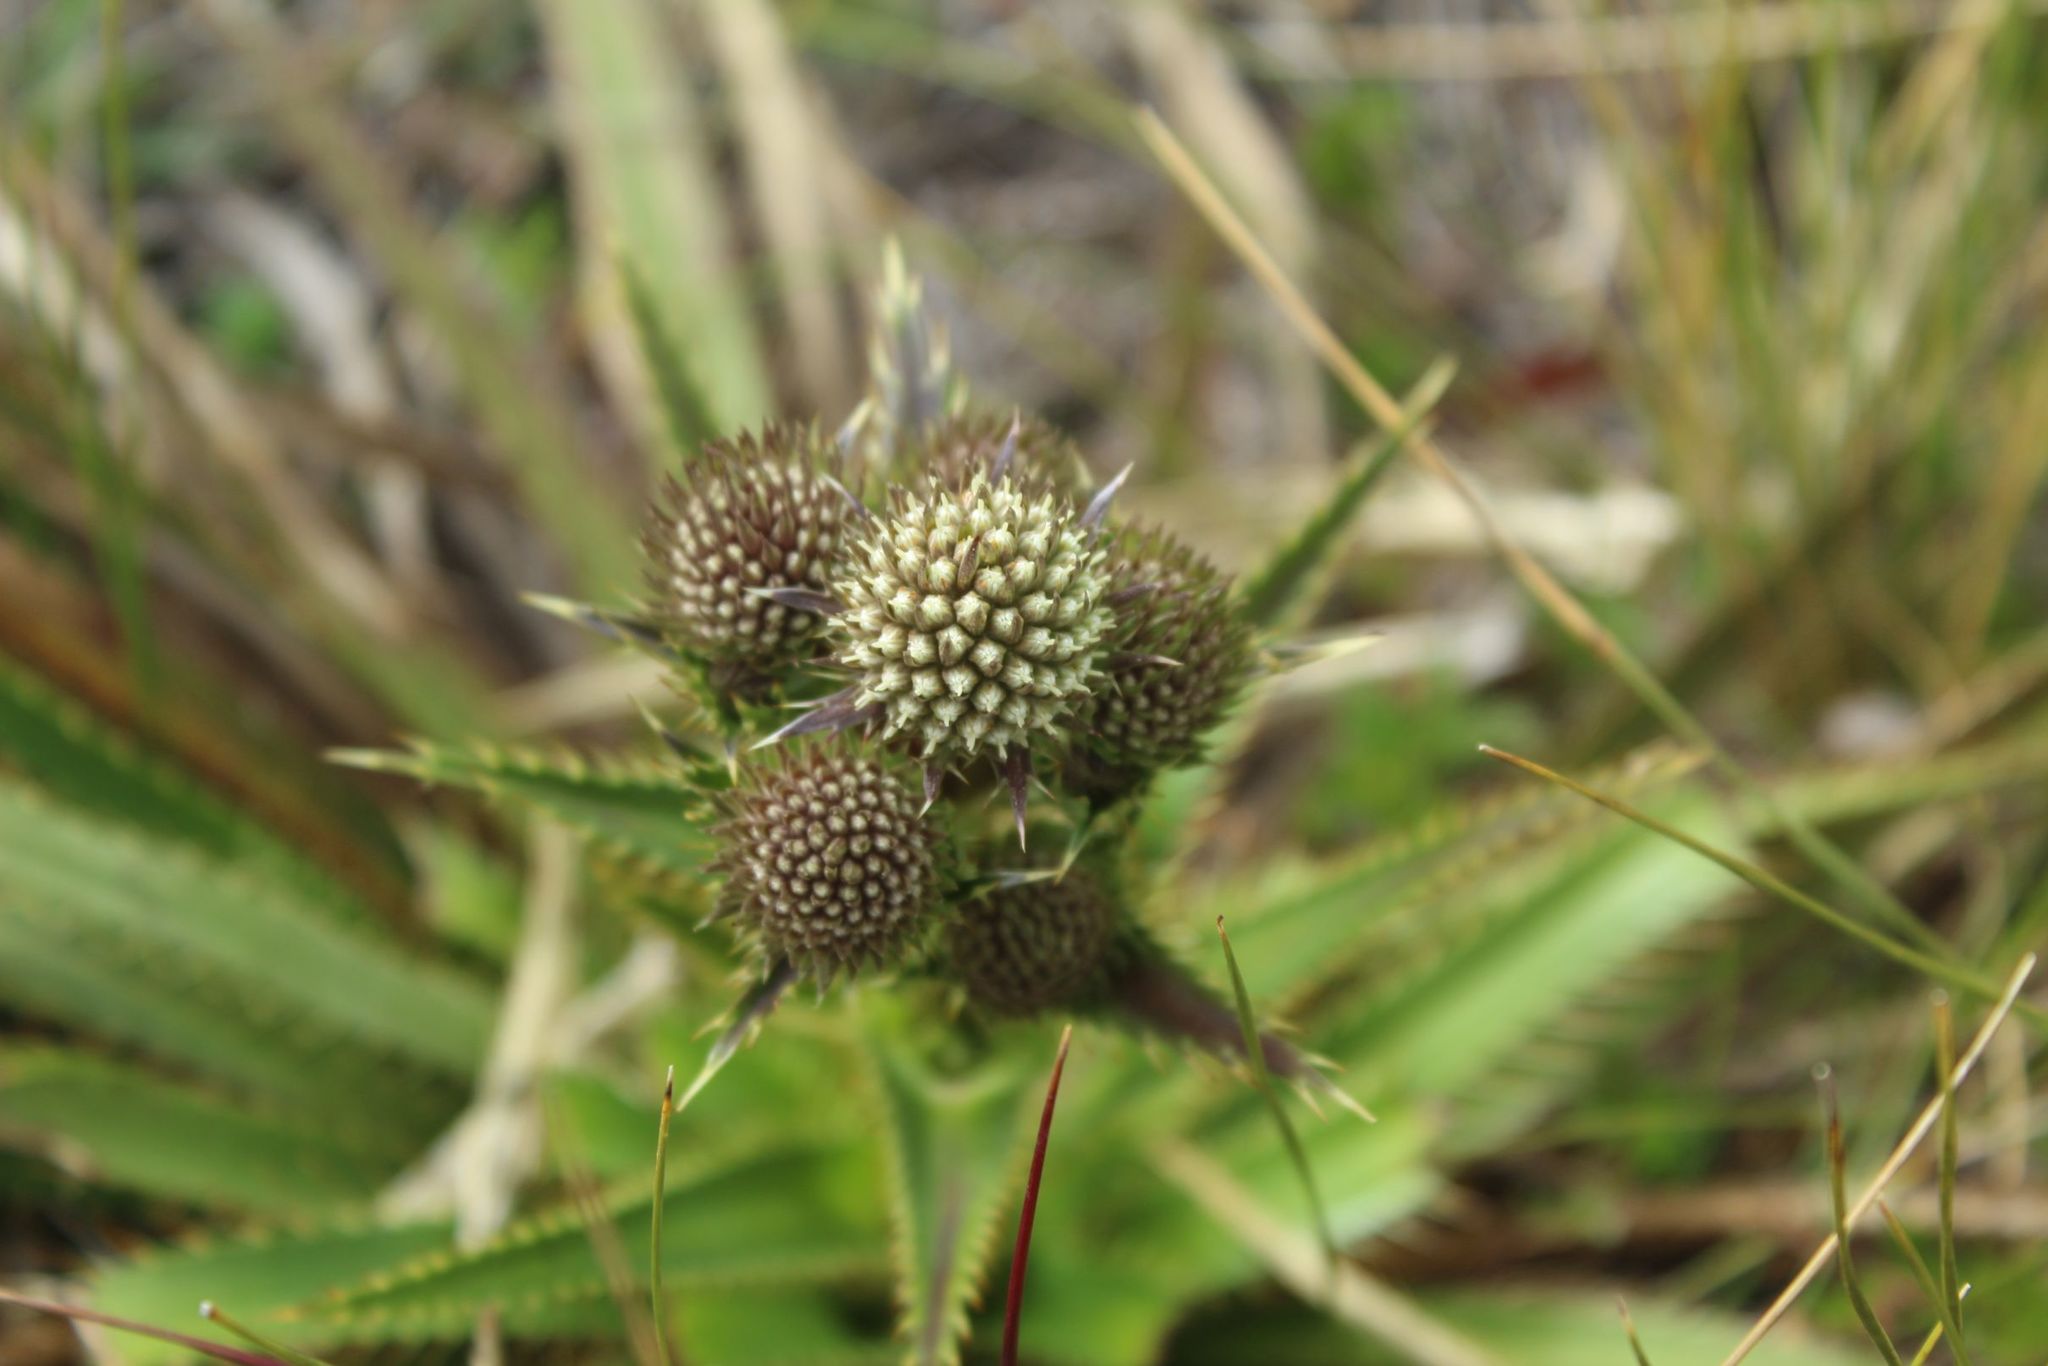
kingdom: Plantae
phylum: Tracheophyta
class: Magnoliopsida
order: Apiales
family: Apiaceae
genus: Eryngium
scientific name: Eryngium humboldtii
